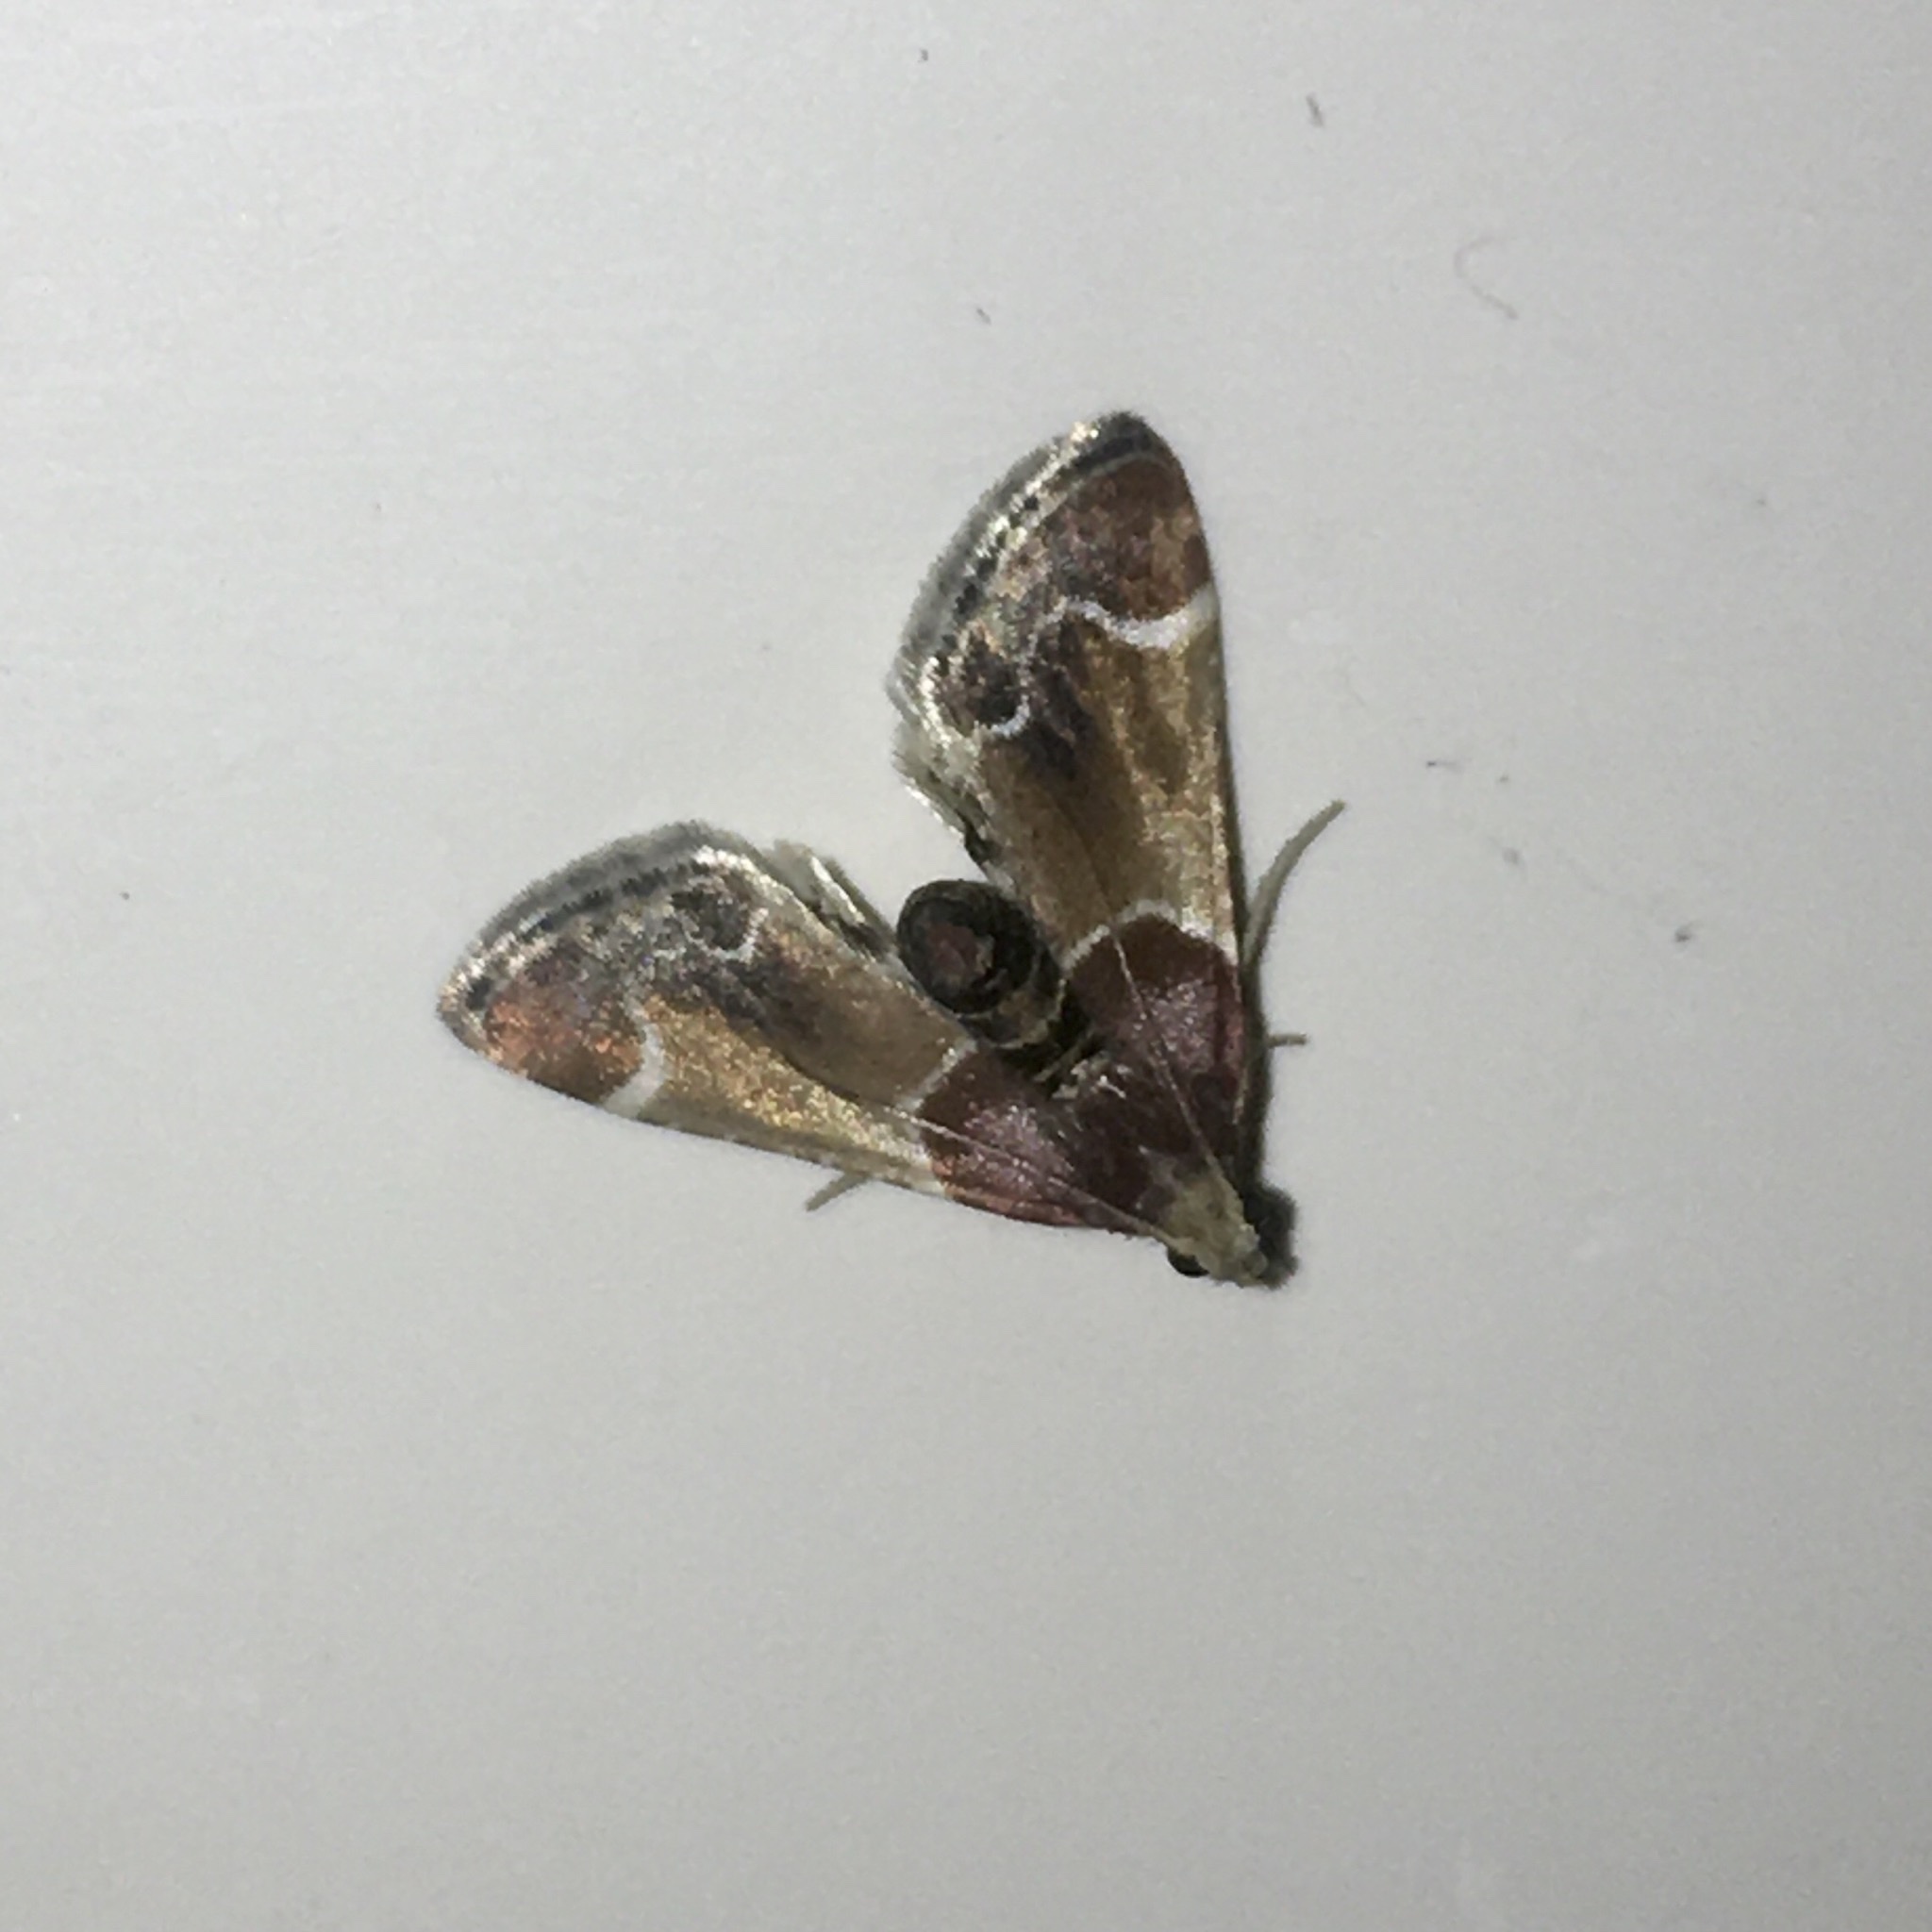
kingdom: Animalia
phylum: Arthropoda
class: Insecta
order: Lepidoptera
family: Pyralidae
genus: Pyralis
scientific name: Pyralis farinalis
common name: Meal moth
